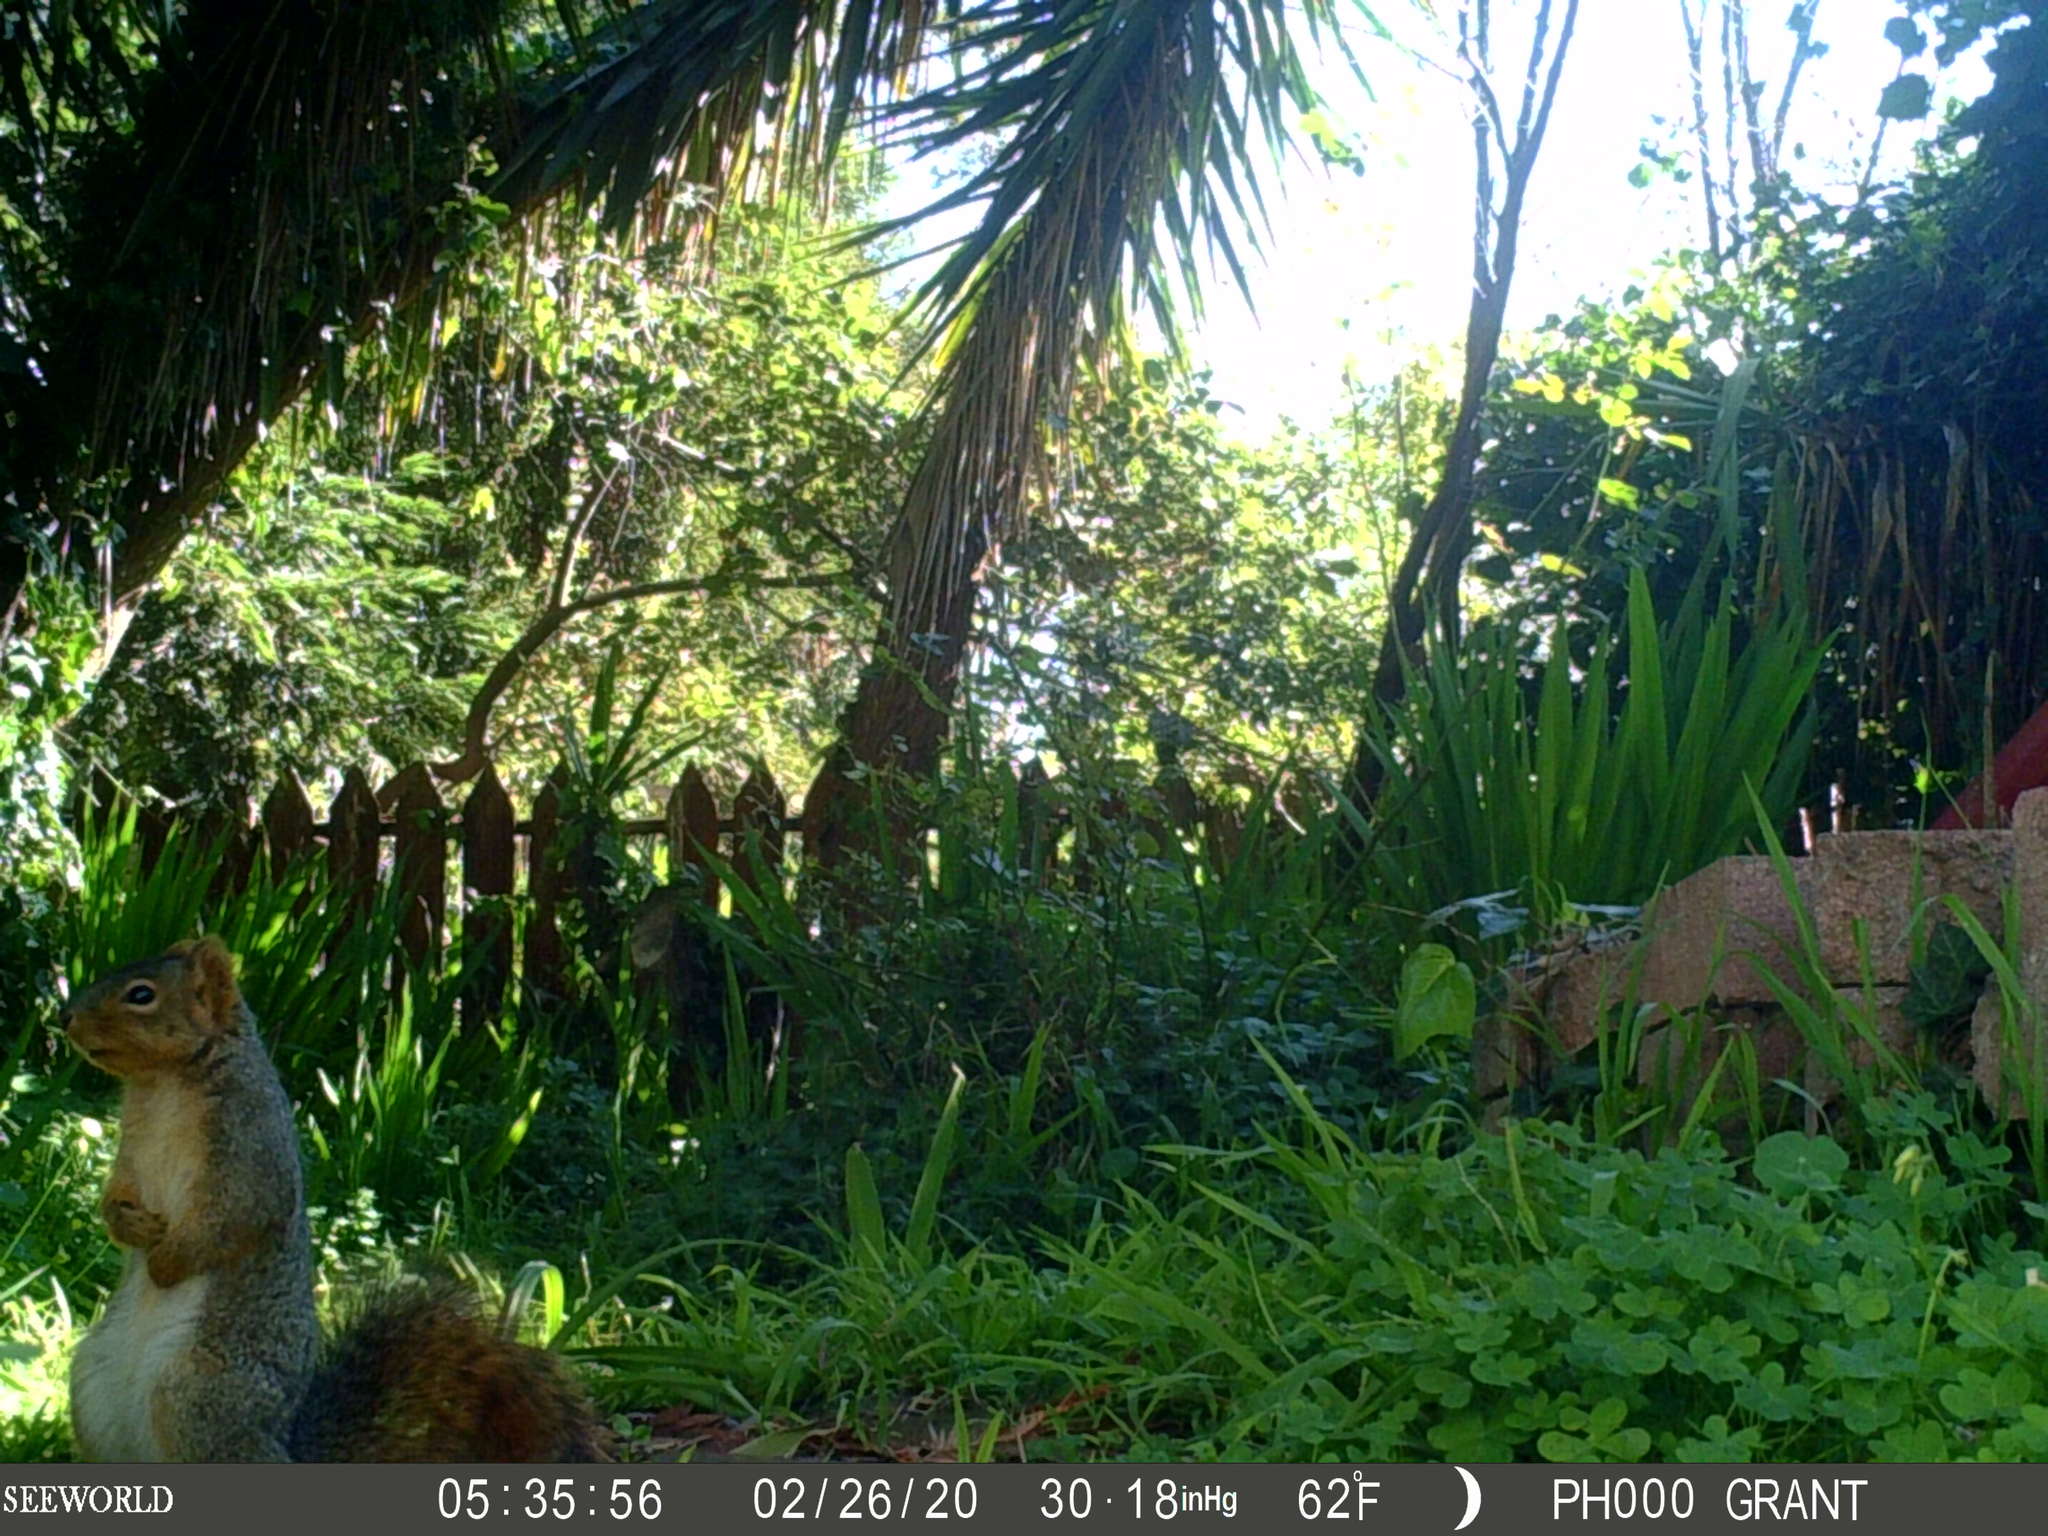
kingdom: Animalia
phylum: Chordata
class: Mammalia
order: Rodentia
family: Sciuridae
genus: Sciurus
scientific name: Sciurus niger
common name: Fox squirrel
